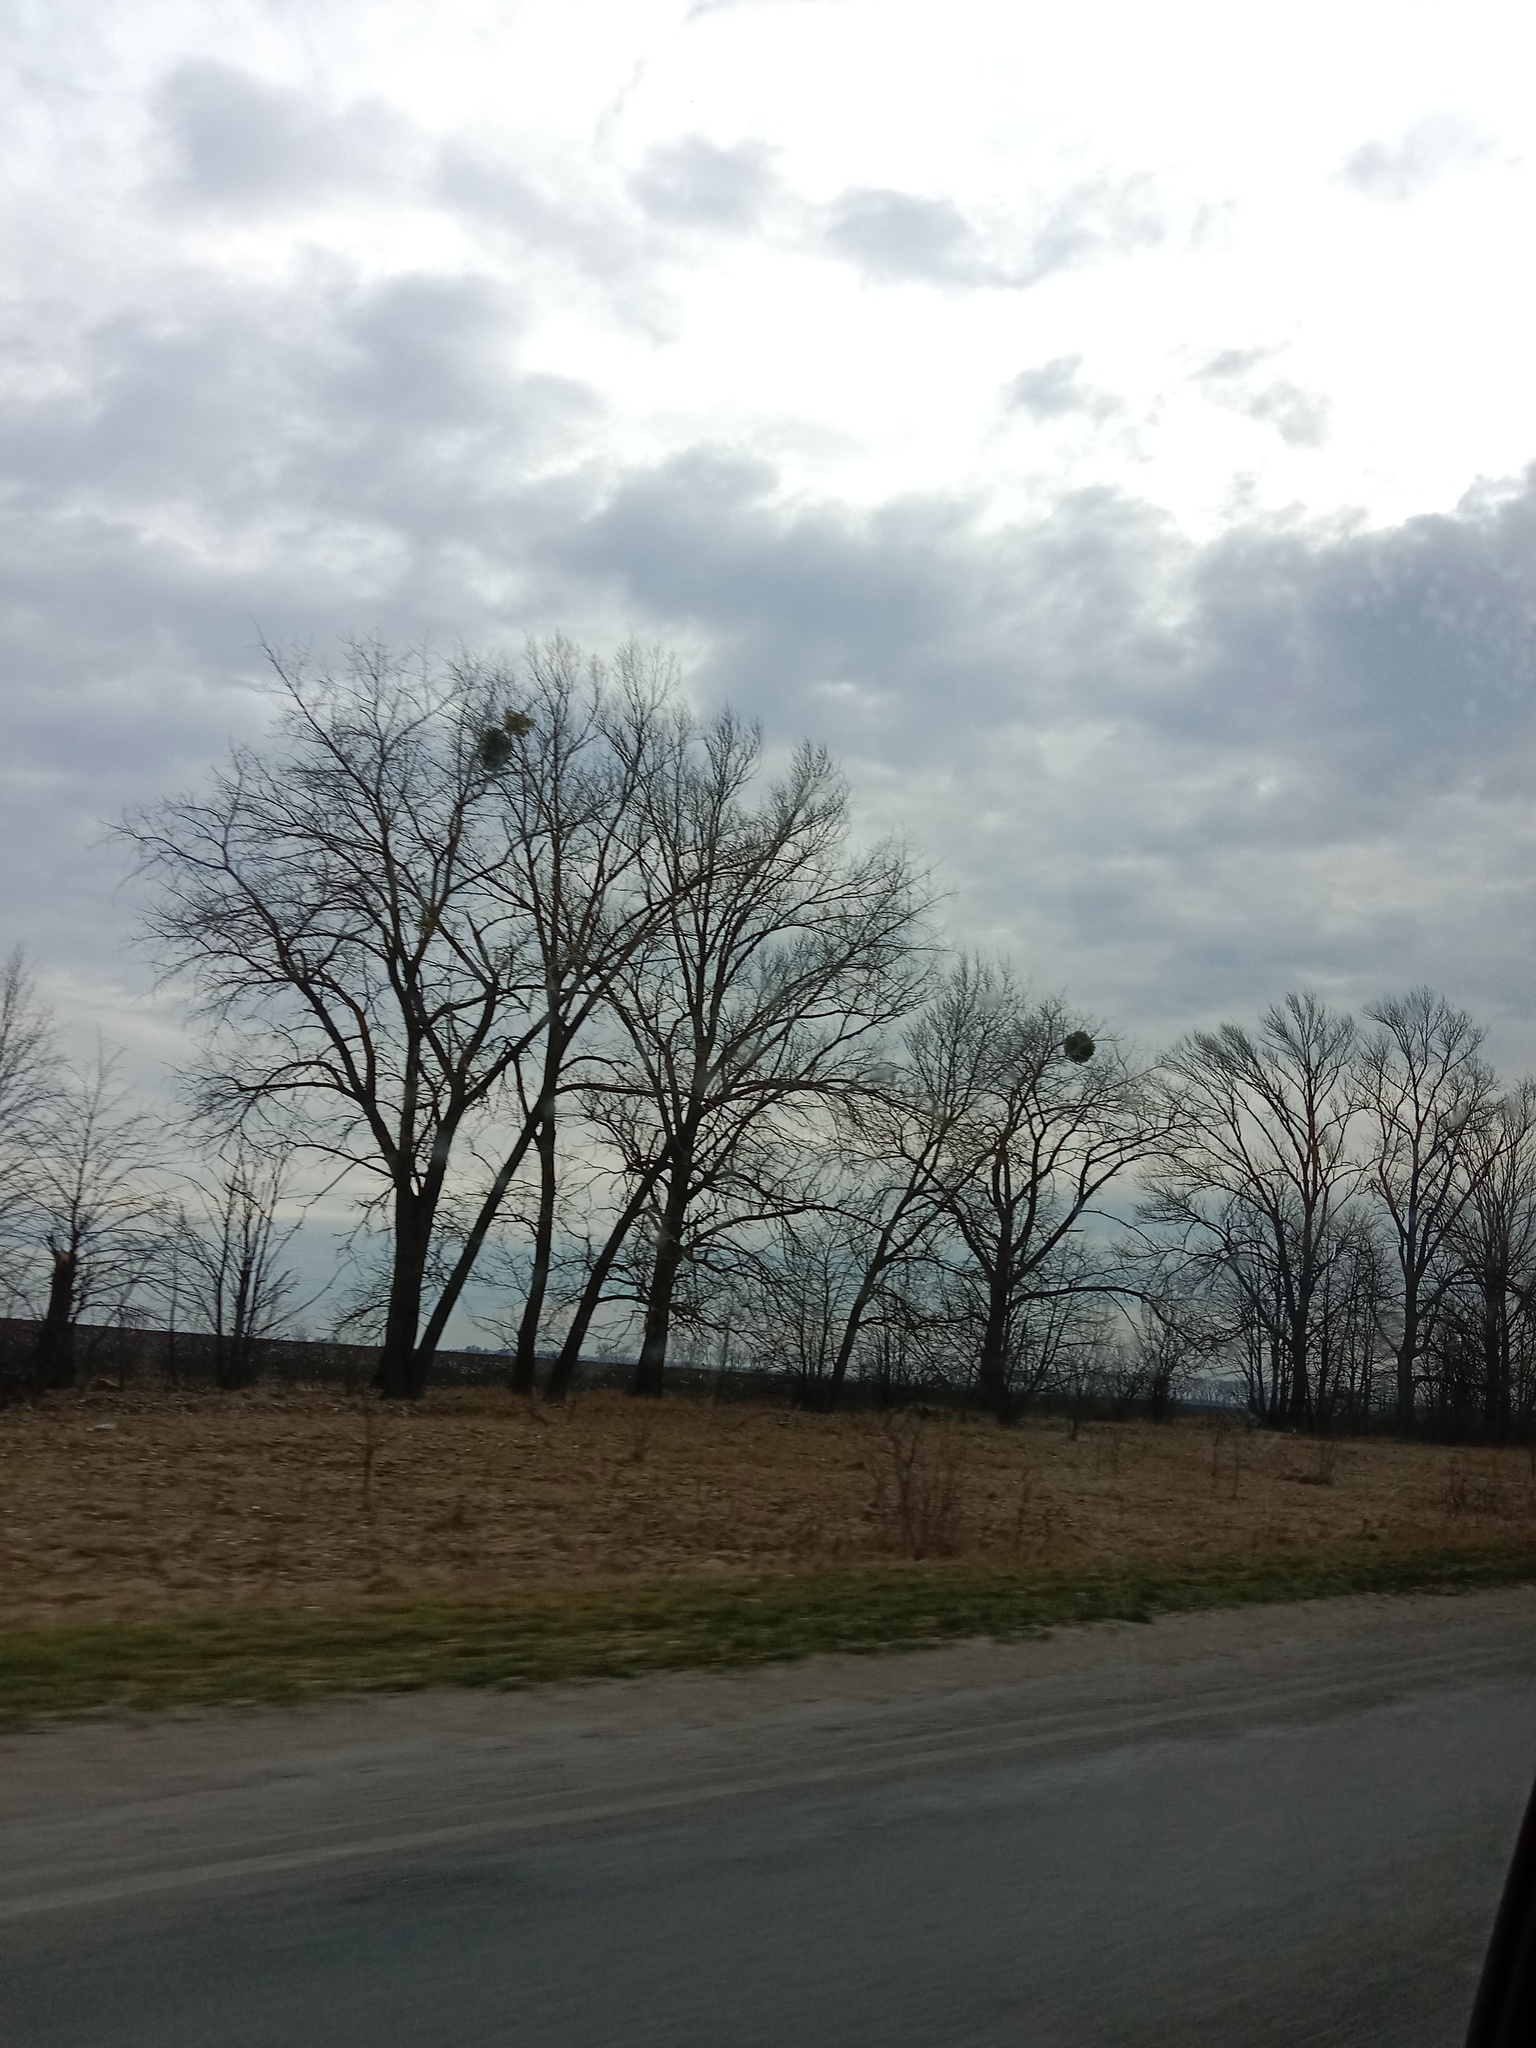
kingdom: Plantae
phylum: Tracheophyta
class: Magnoliopsida
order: Santalales
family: Viscaceae
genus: Viscum
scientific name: Viscum album
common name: Mistletoe
